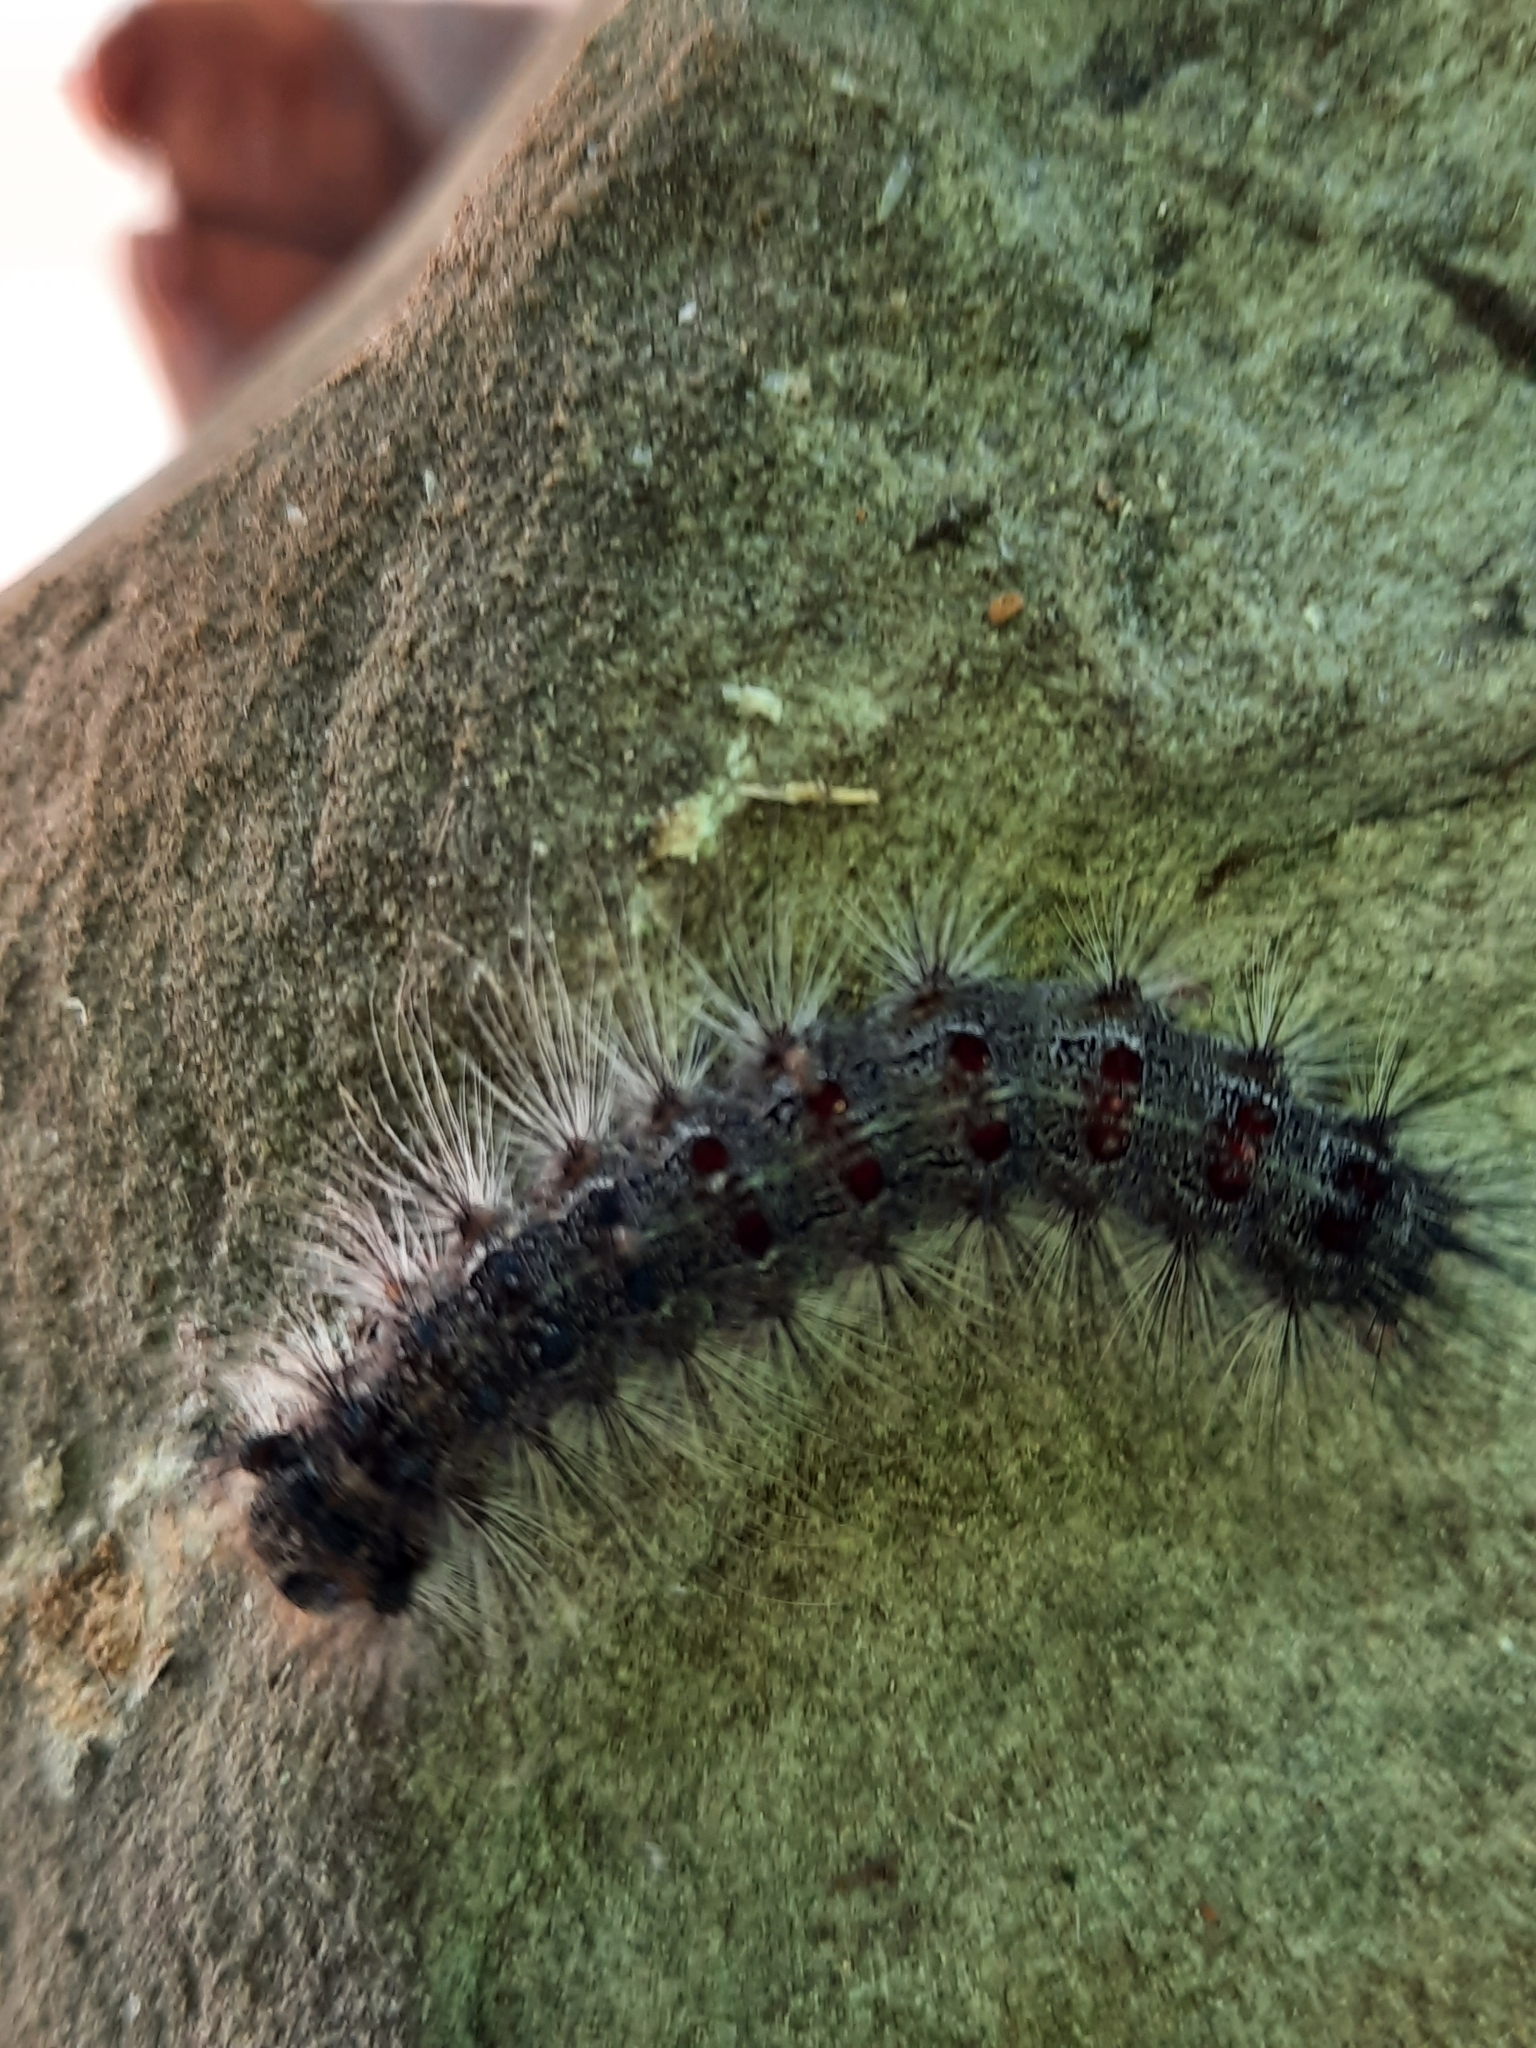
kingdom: Animalia
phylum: Arthropoda
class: Insecta
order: Lepidoptera
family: Erebidae
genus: Lymantria
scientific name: Lymantria dispar
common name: Gypsy moth
